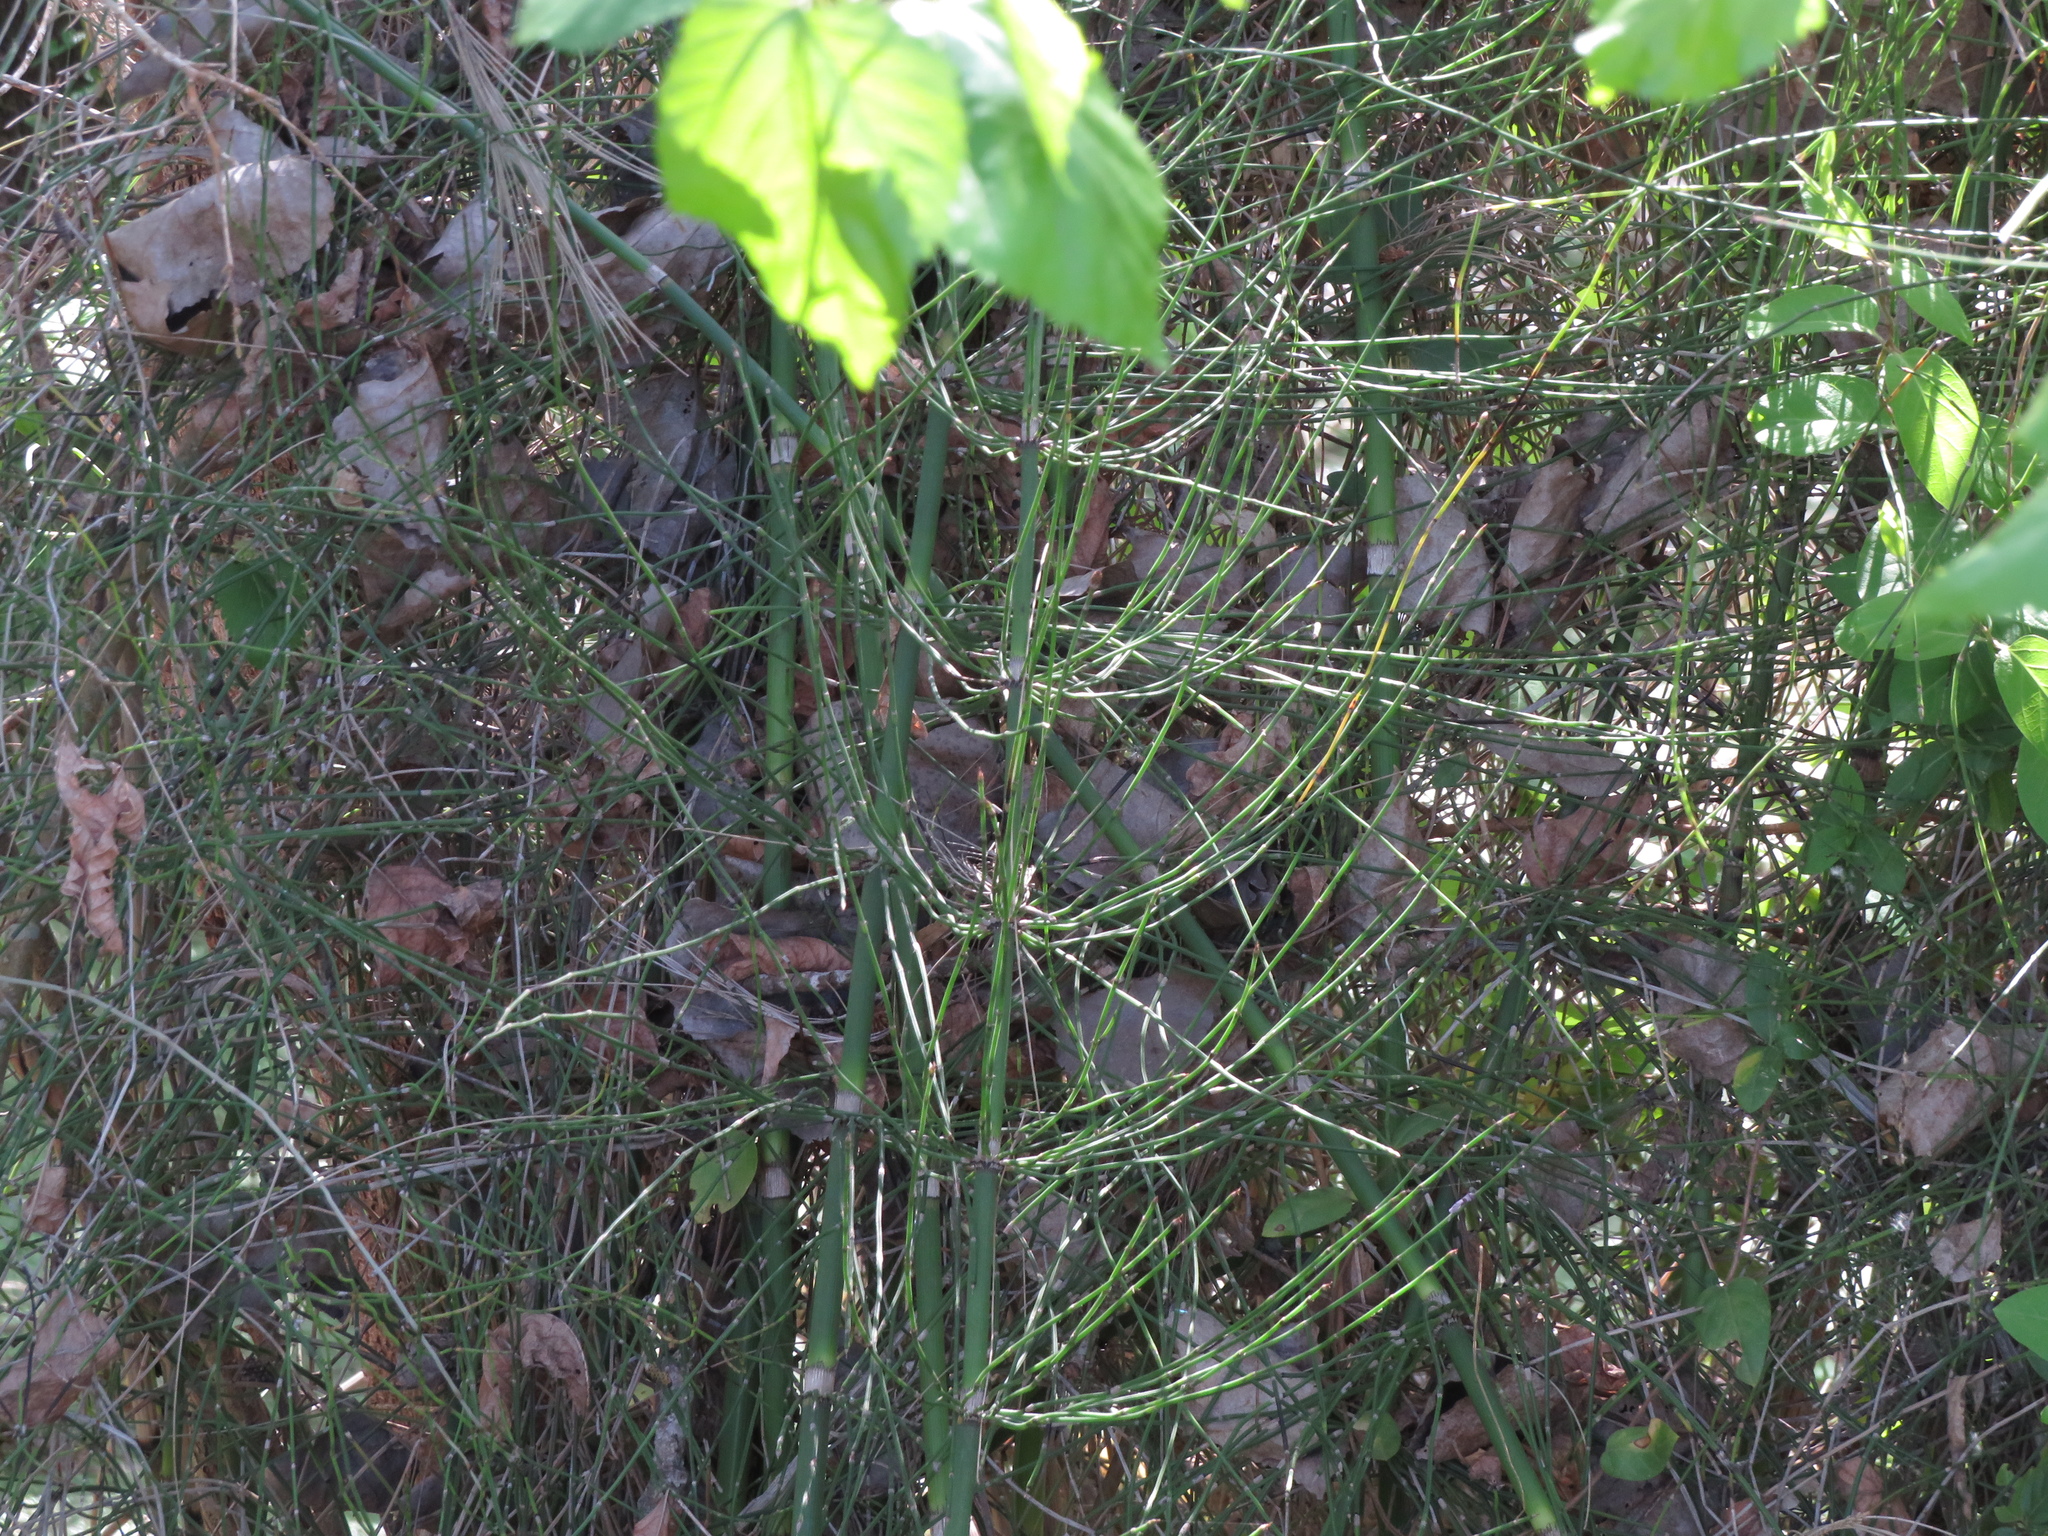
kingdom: Plantae
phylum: Tracheophyta
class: Polypodiopsida
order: Equisetales
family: Equisetaceae
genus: Equisetum
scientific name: Equisetum giganteum
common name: Giant horsetail
